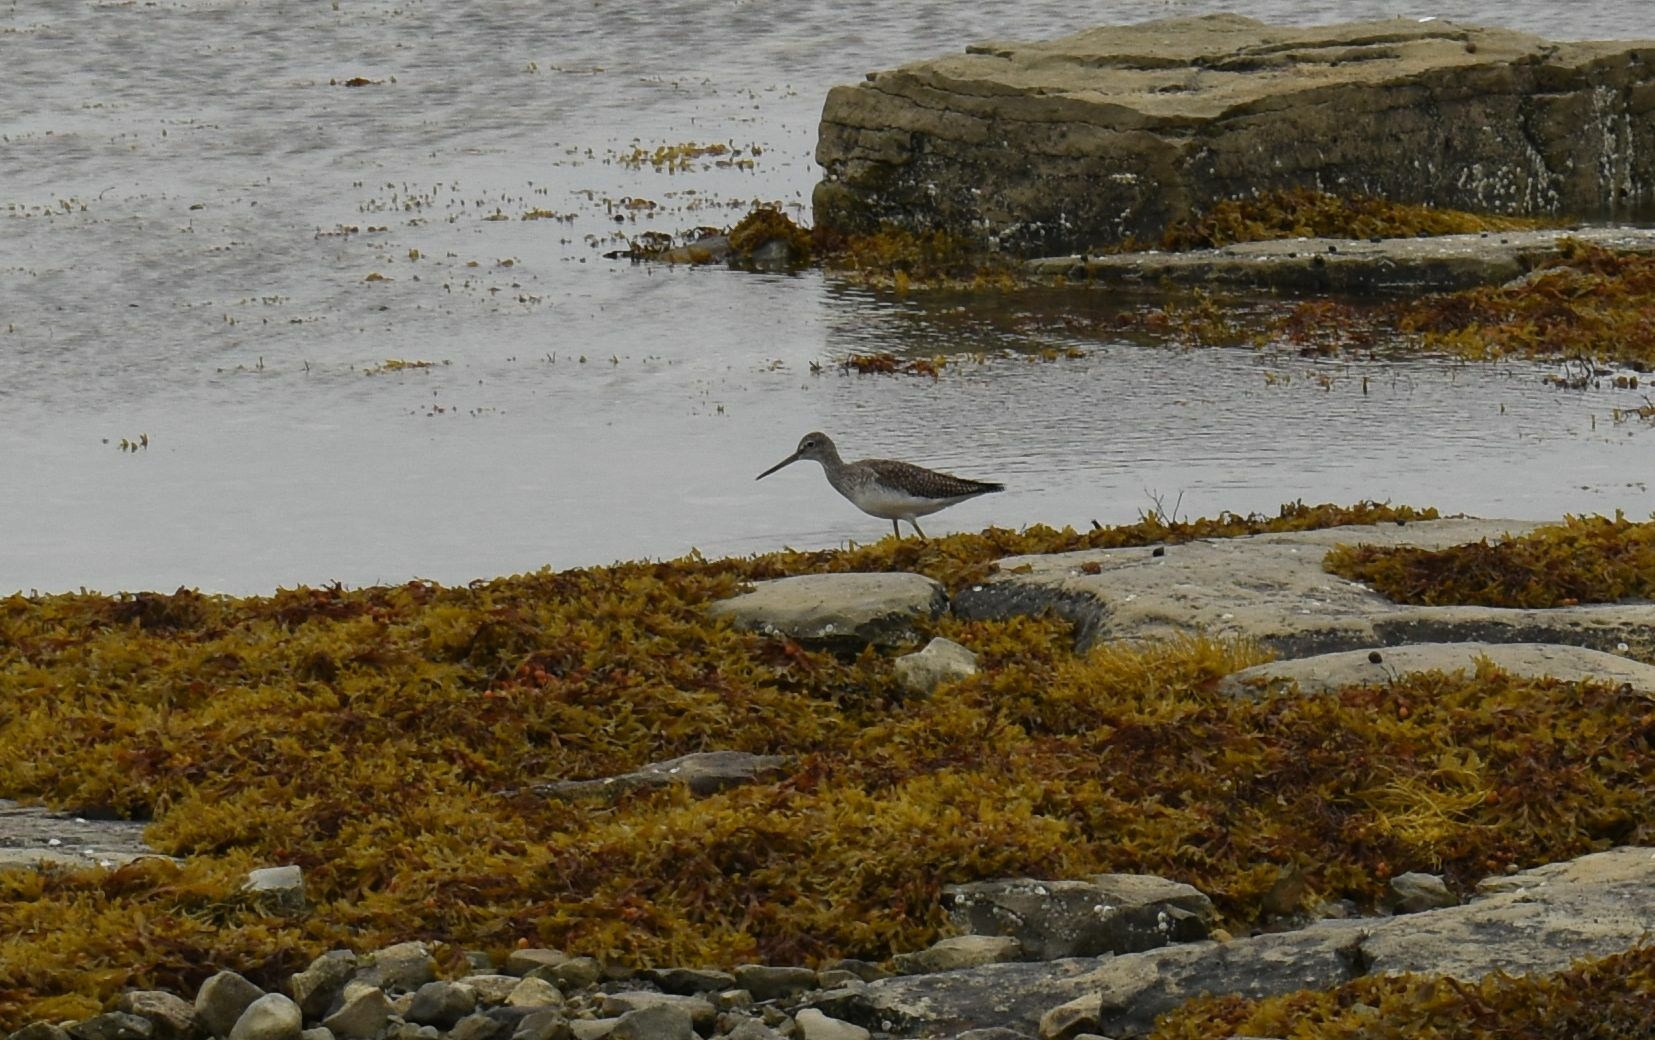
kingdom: Animalia
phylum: Chordata
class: Aves
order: Charadriiformes
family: Scolopacidae
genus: Tringa
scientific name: Tringa melanoleuca
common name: Greater yellowlegs
